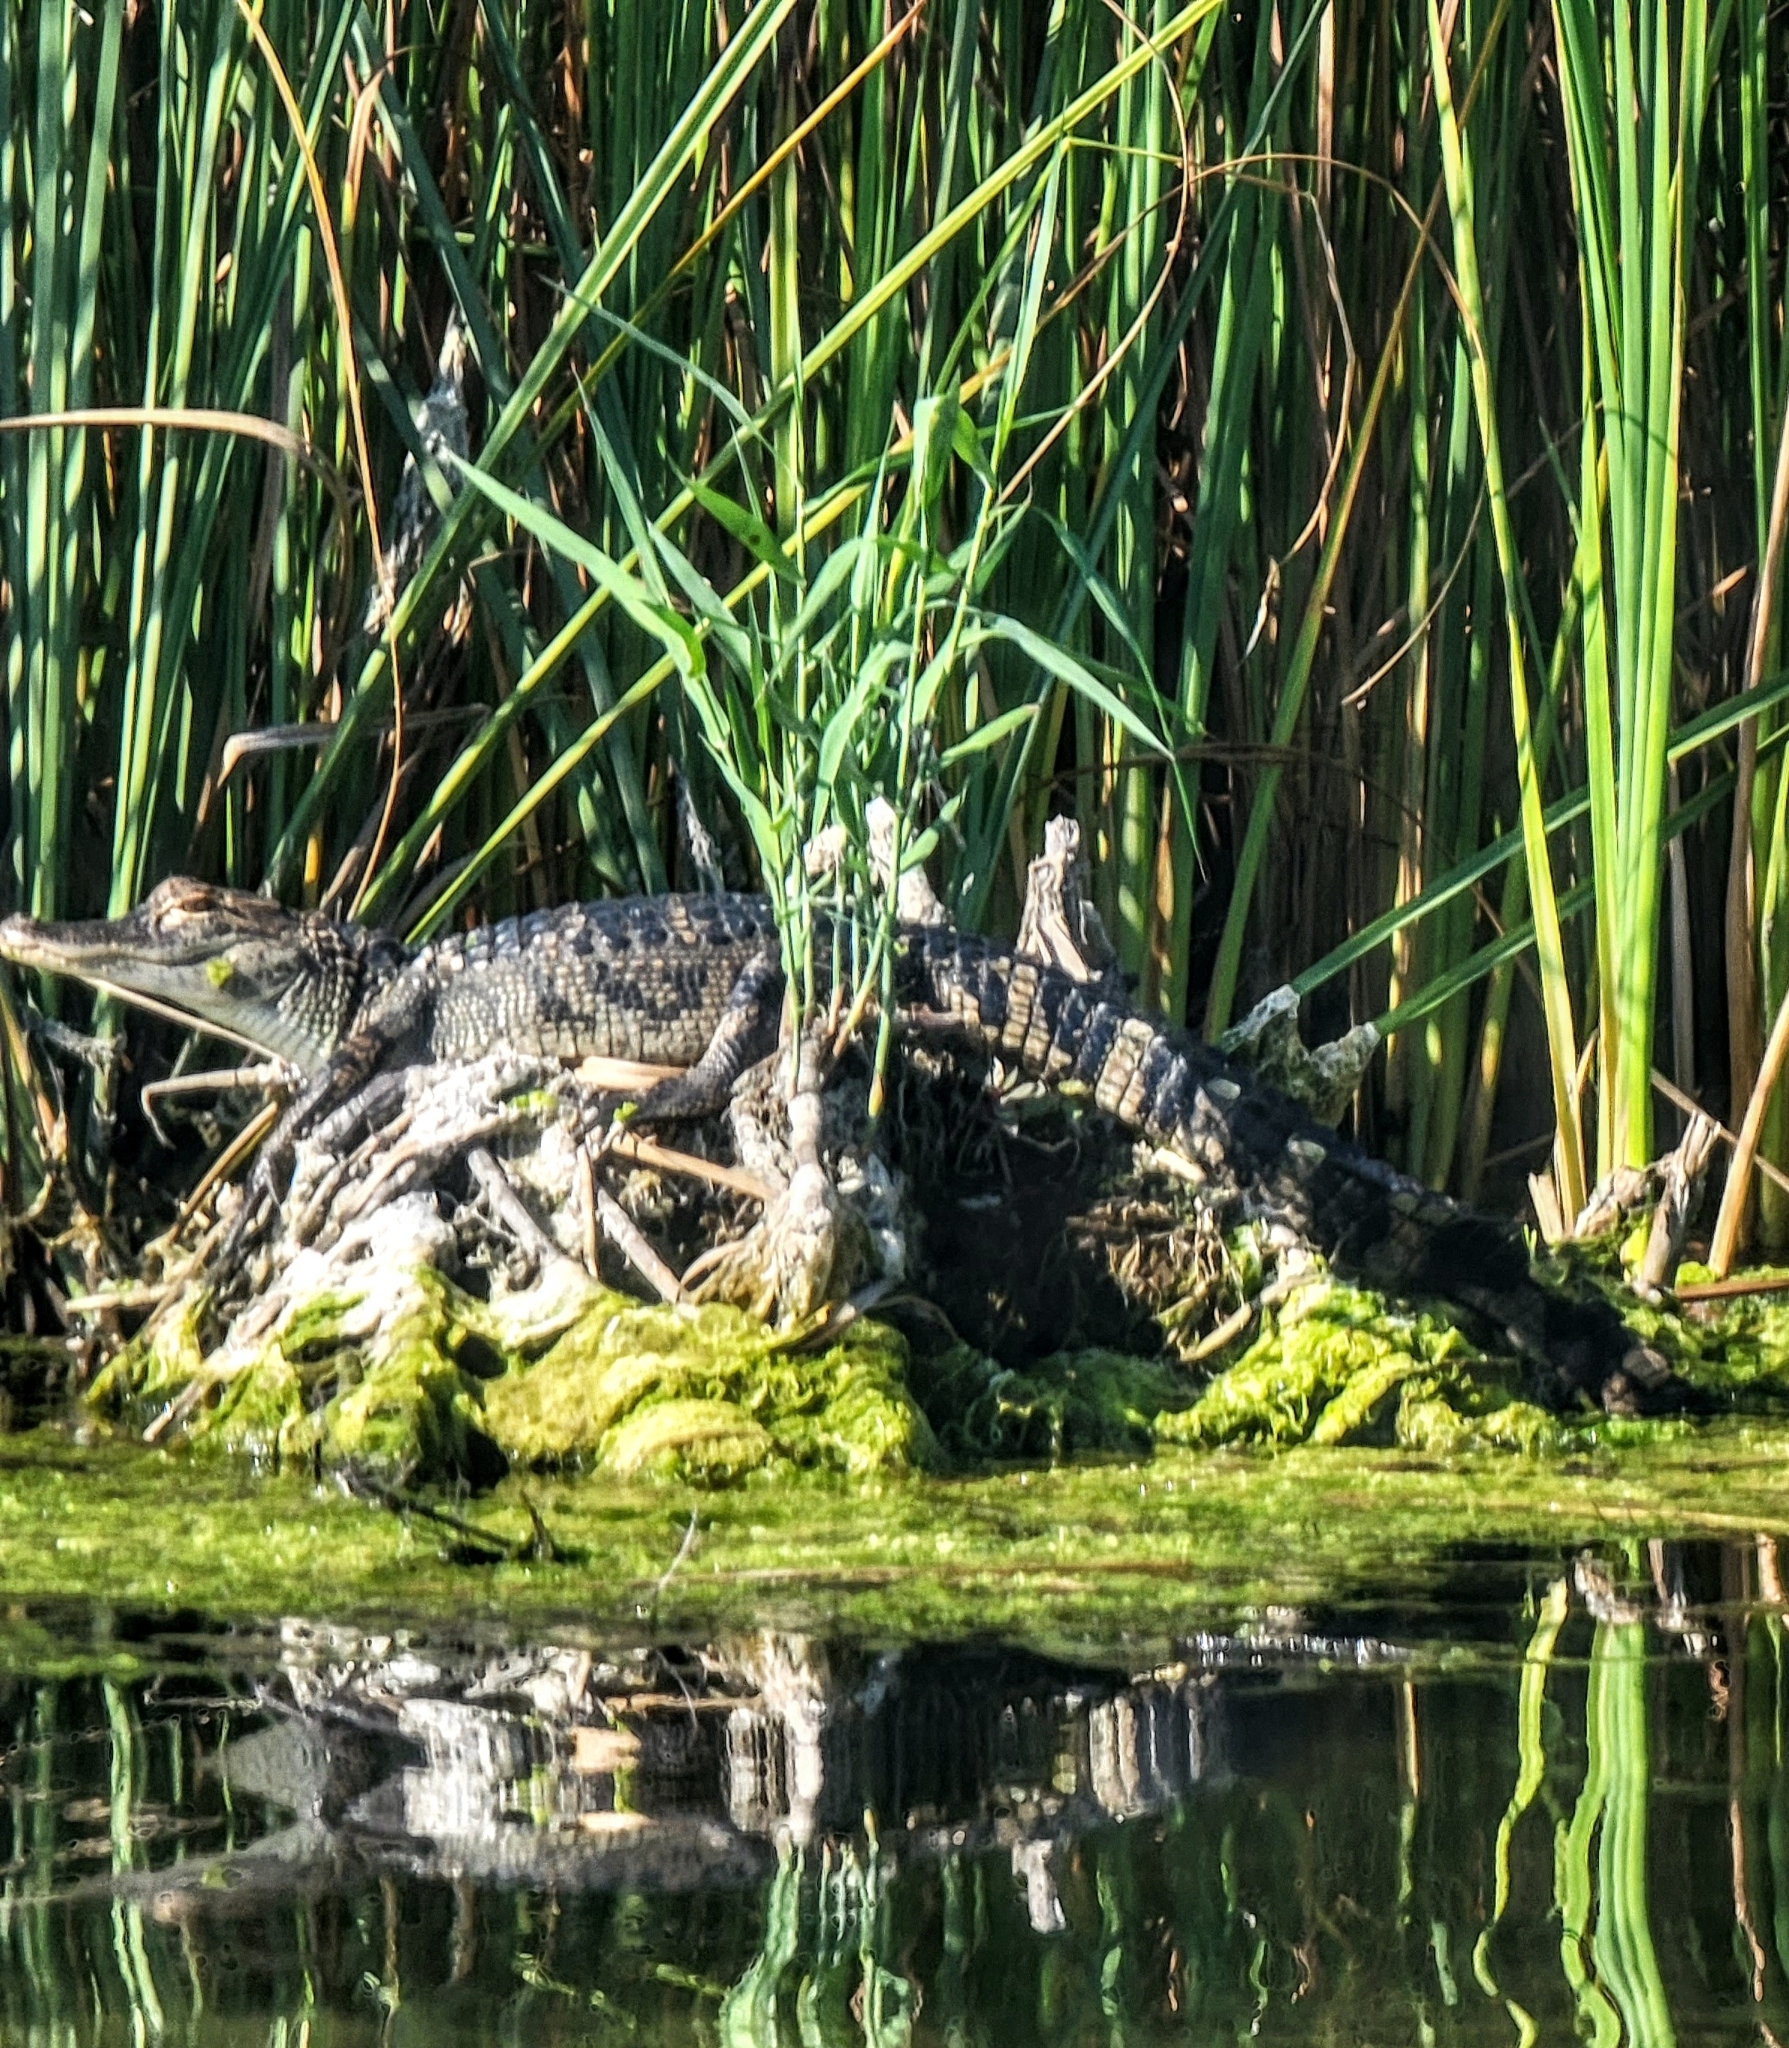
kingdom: Animalia
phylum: Chordata
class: Crocodylia
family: Alligatoridae
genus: Alligator
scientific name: Alligator mississippiensis
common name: American alligator
